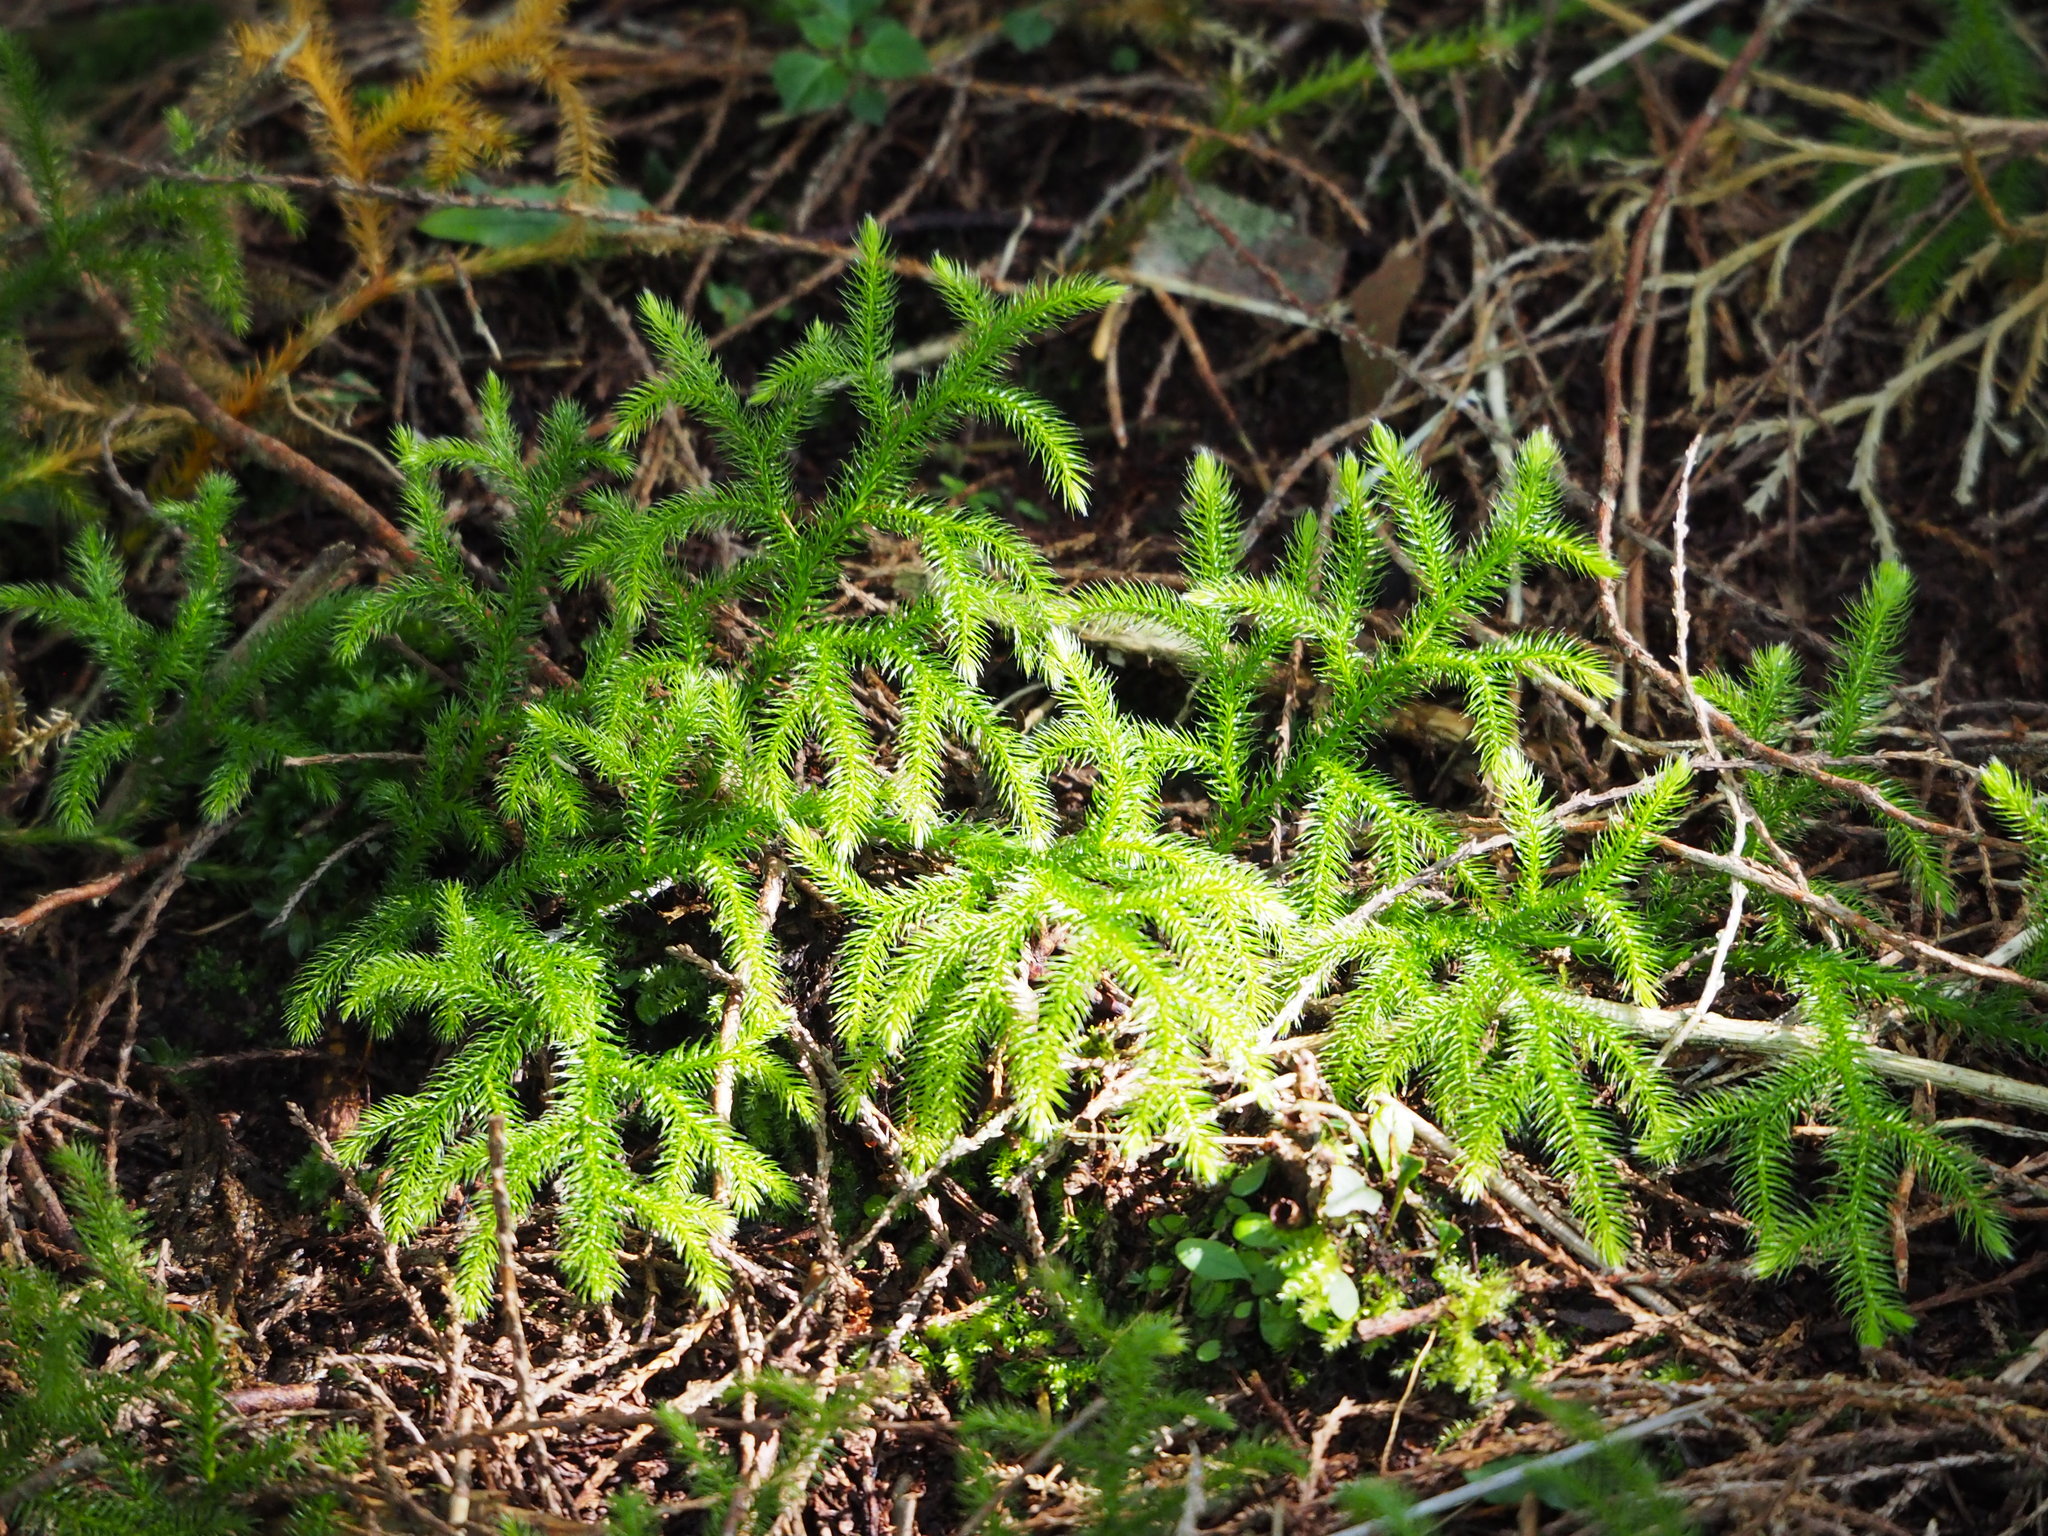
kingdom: Plantae
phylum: Tracheophyta
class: Lycopodiopsida
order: Lycopodiales
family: Lycopodiaceae
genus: Lycopodium
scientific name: Lycopodium japonicum
